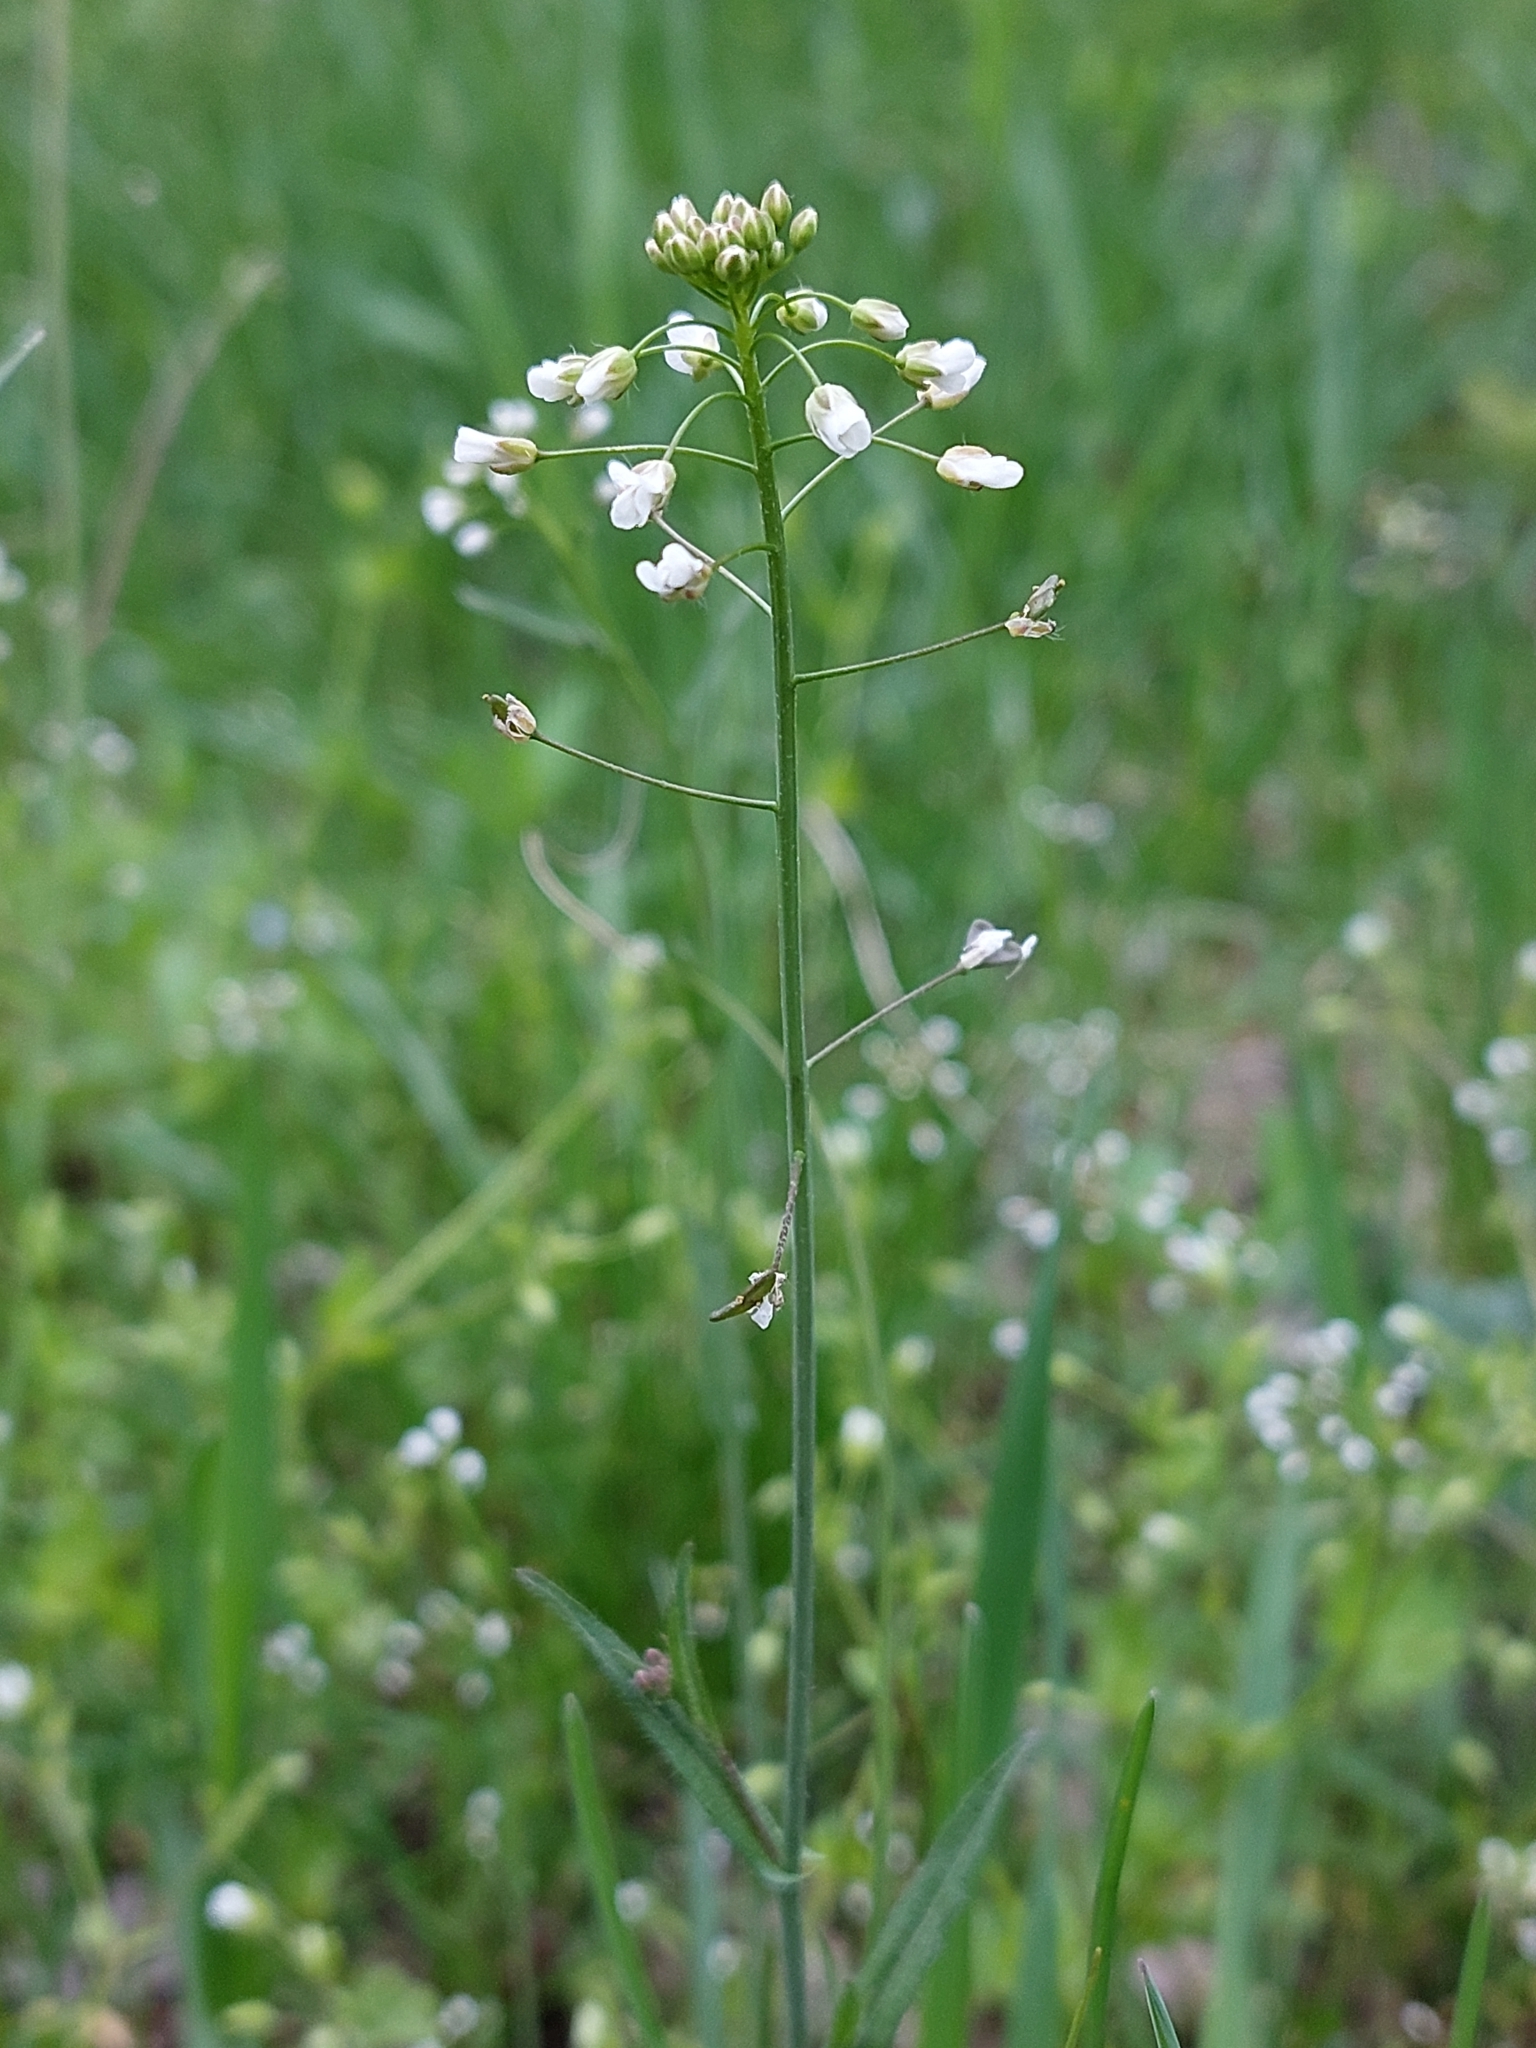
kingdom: Plantae
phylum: Tracheophyta
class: Magnoliopsida
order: Brassicales
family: Brassicaceae
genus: Capsella
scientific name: Capsella bursa-pastoris
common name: Shepherd's purse
